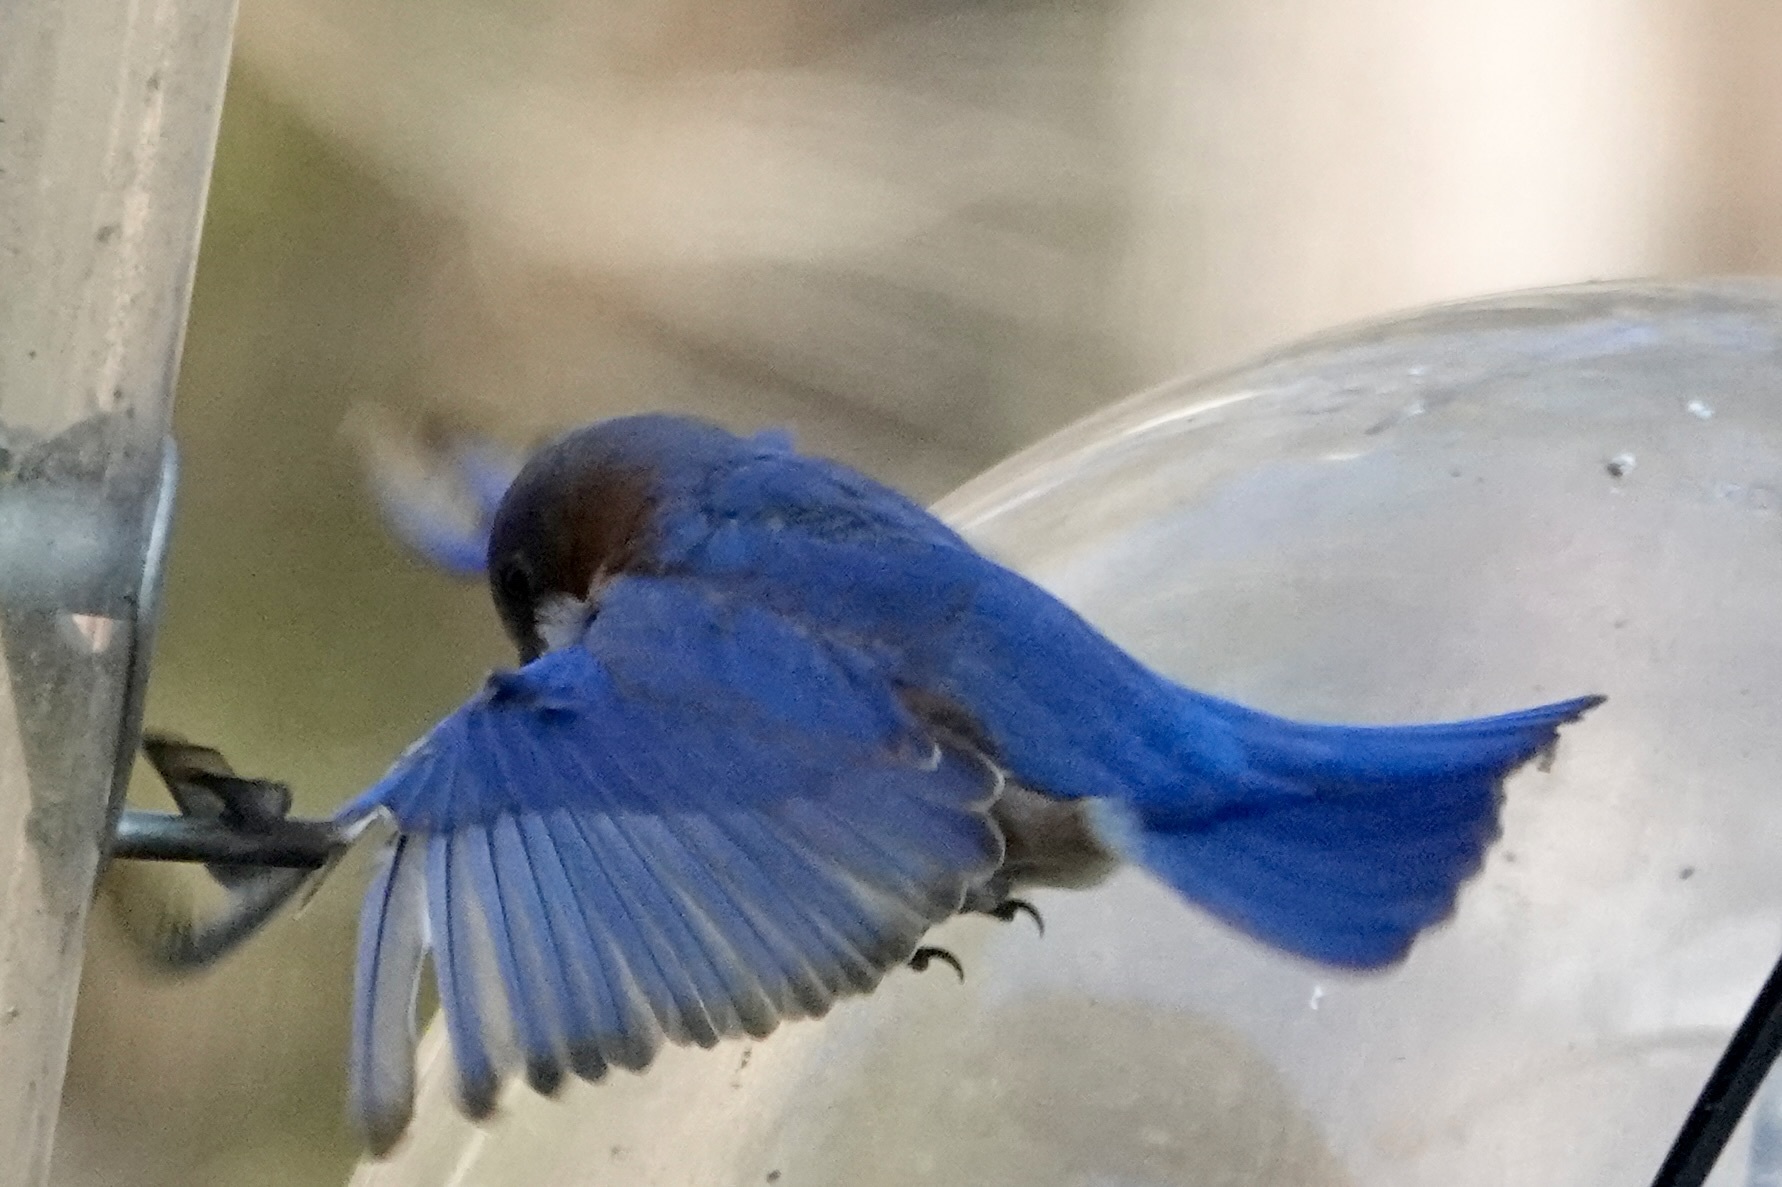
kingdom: Animalia
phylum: Chordata
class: Aves
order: Passeriformes
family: Turdidae
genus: Sialia
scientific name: Sialia sialis
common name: Eastern bluebird
